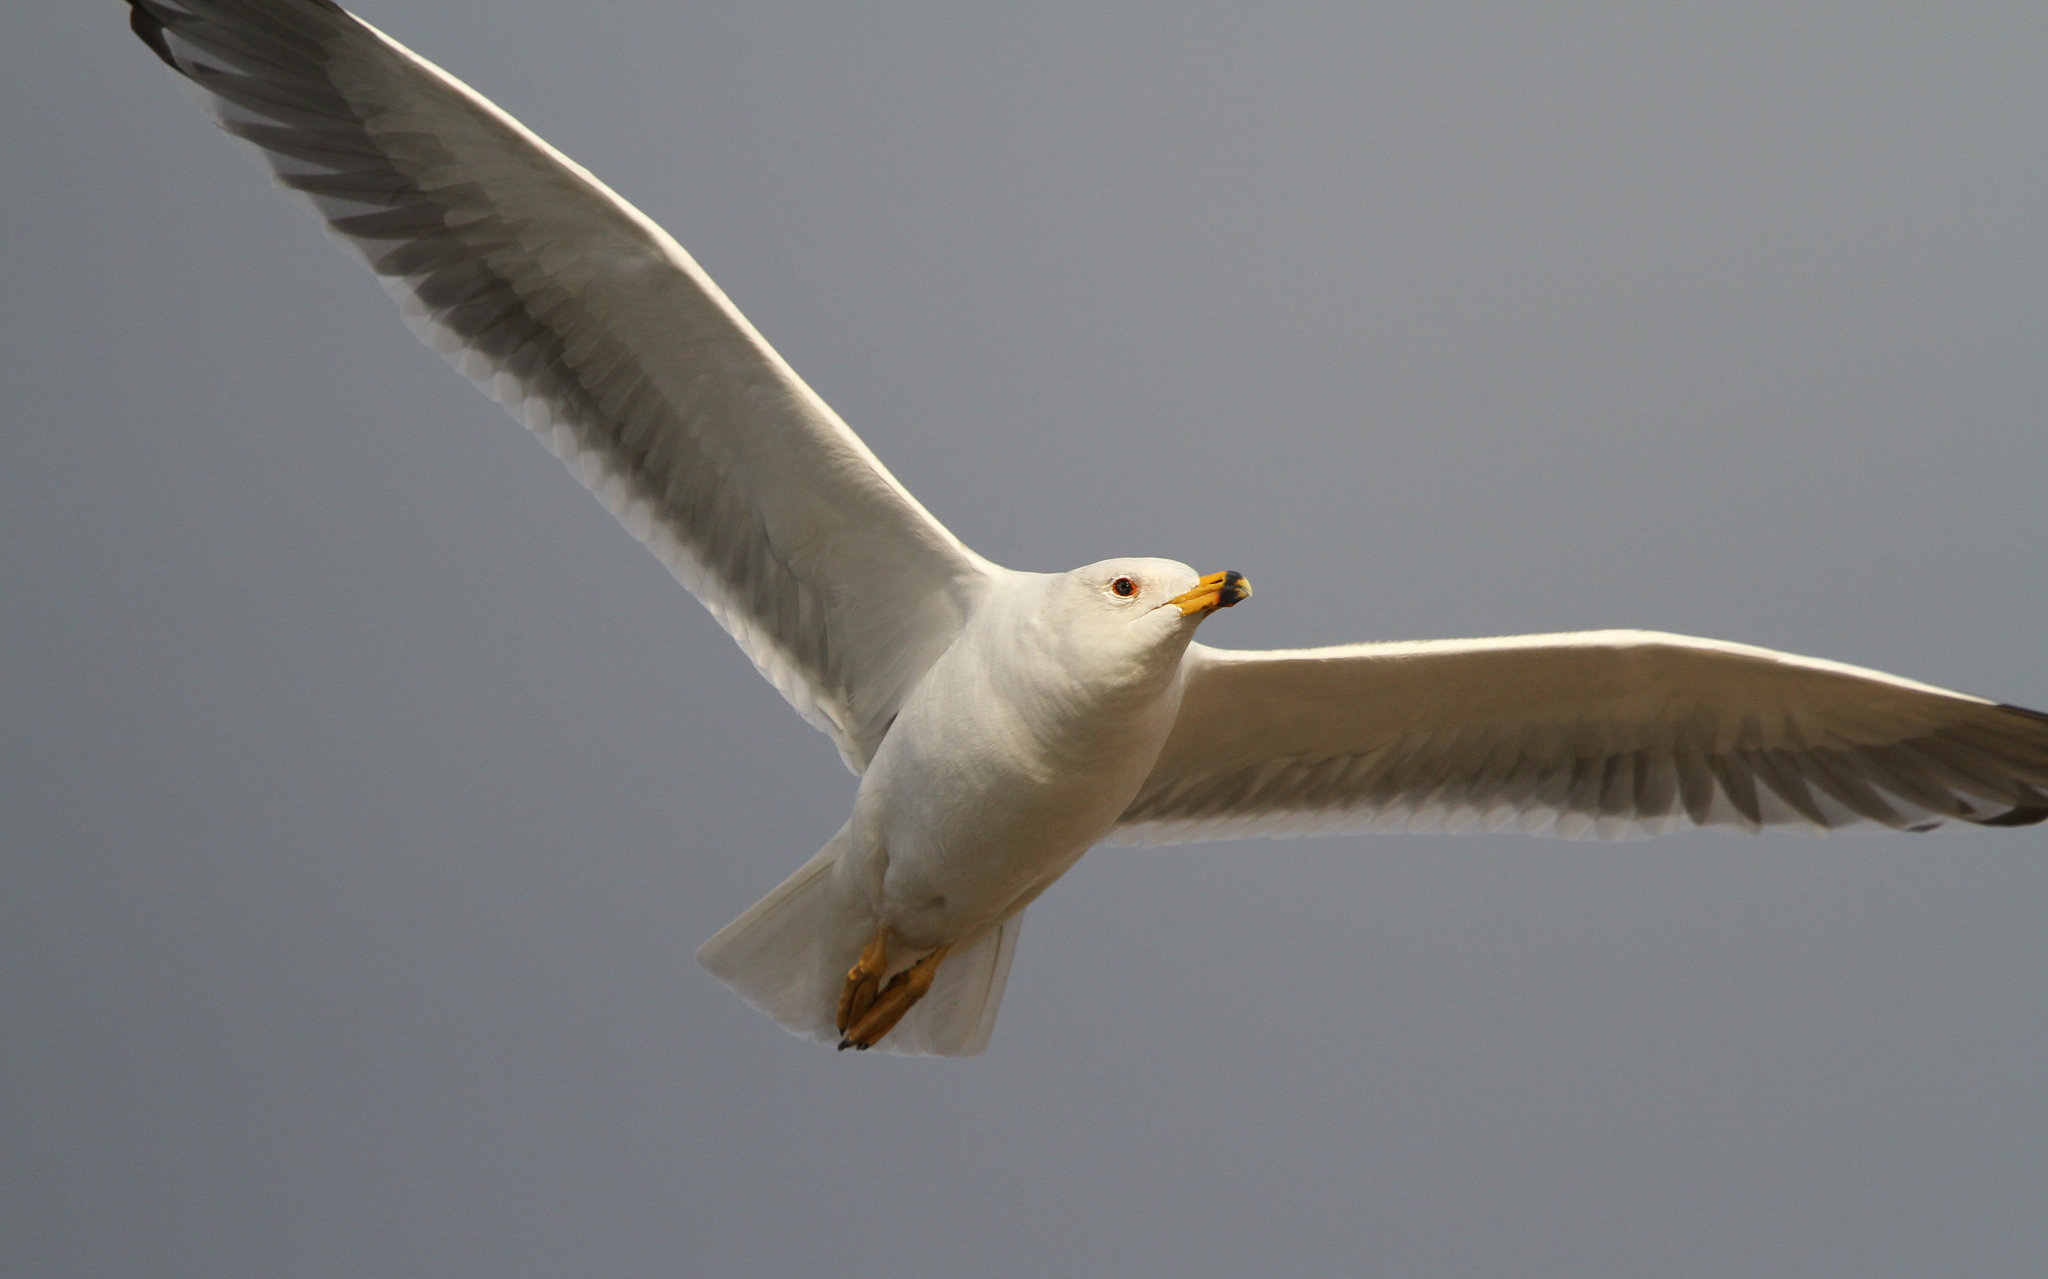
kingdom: Animalia
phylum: Chordata
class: Aves
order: Charadriiformes
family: Laridae
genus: Larus
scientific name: Larus armenicus
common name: Armenian gull
